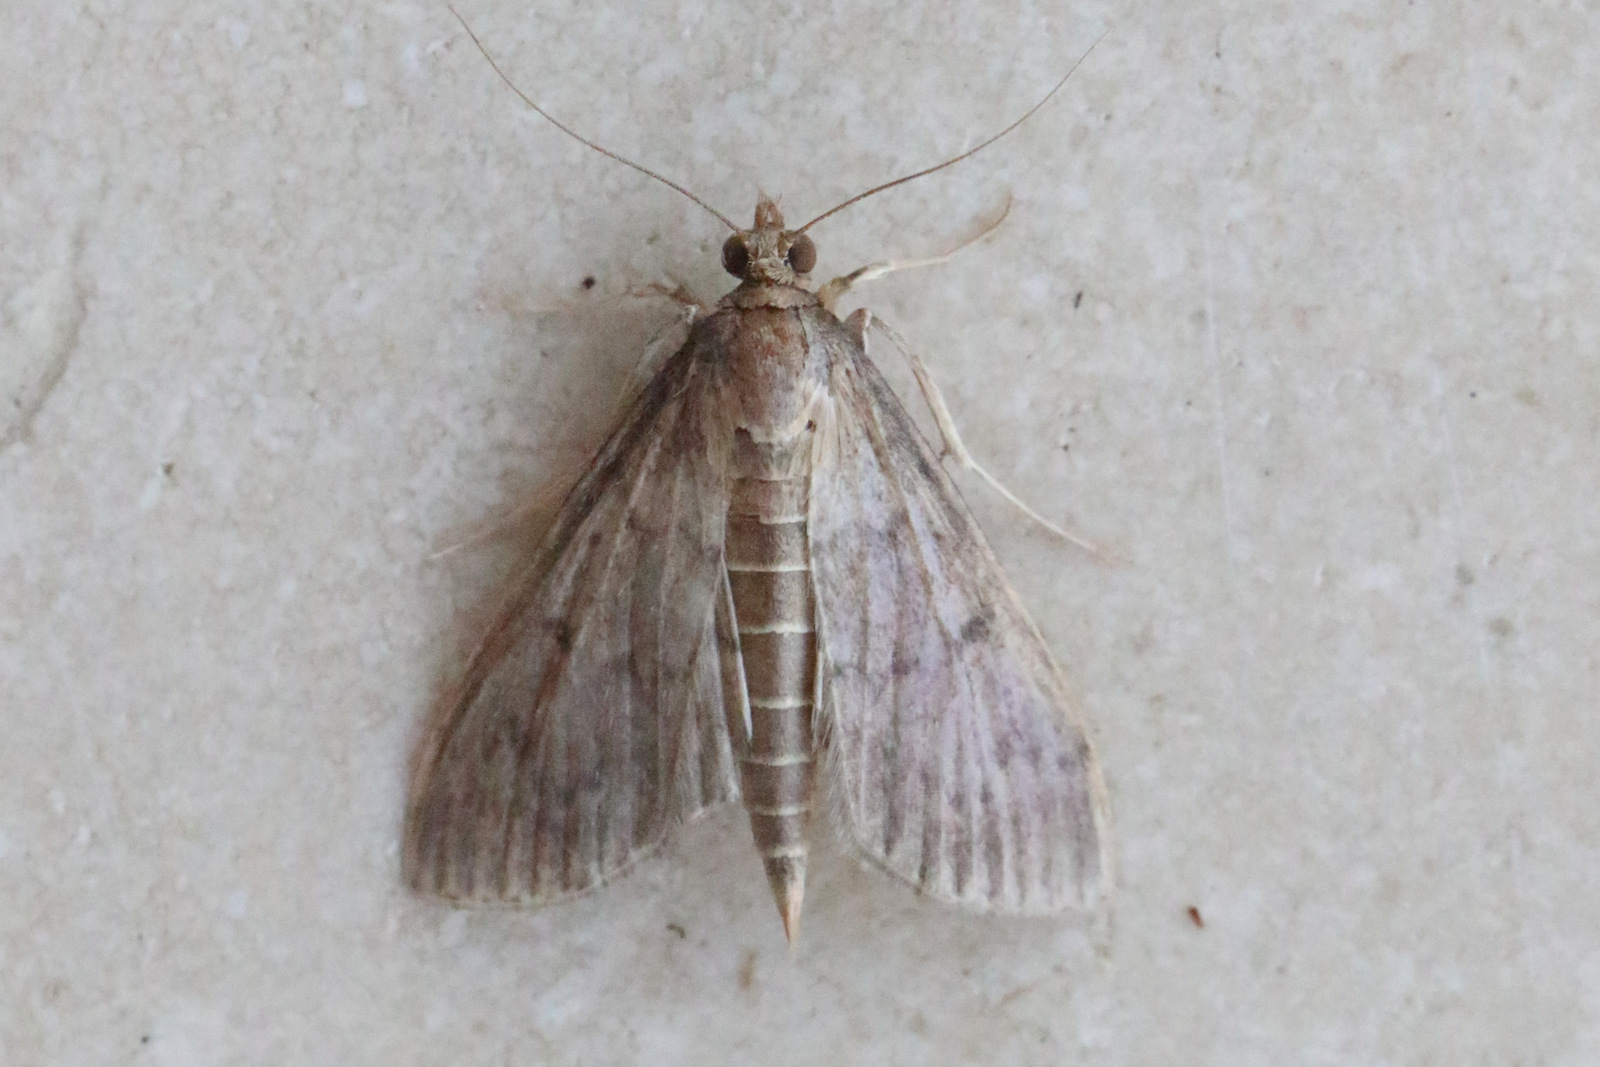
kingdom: Animalia
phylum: Arthropoda
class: Insecta
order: Lepidoptera
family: Crambidae
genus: Herpetogramma
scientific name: Herpetogramma licarsisalis
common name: Grass webworm
